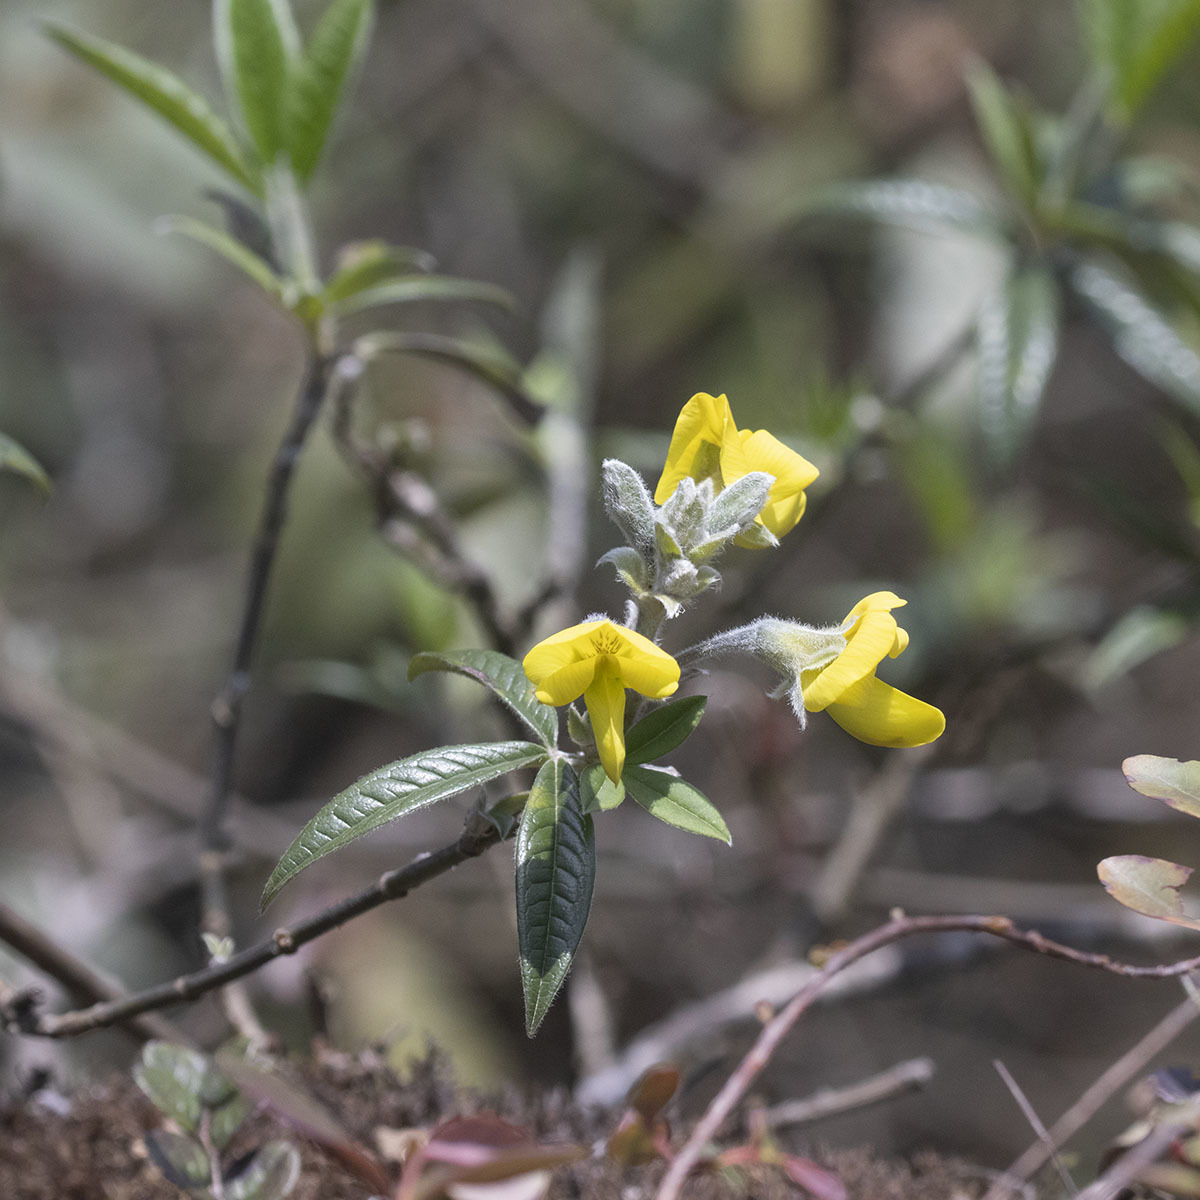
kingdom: Plantae
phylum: Tracheophyta
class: Magnoliopsida
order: Fabales
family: Fabaceae
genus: Piptanthus
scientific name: Piptanthus nepalensis
